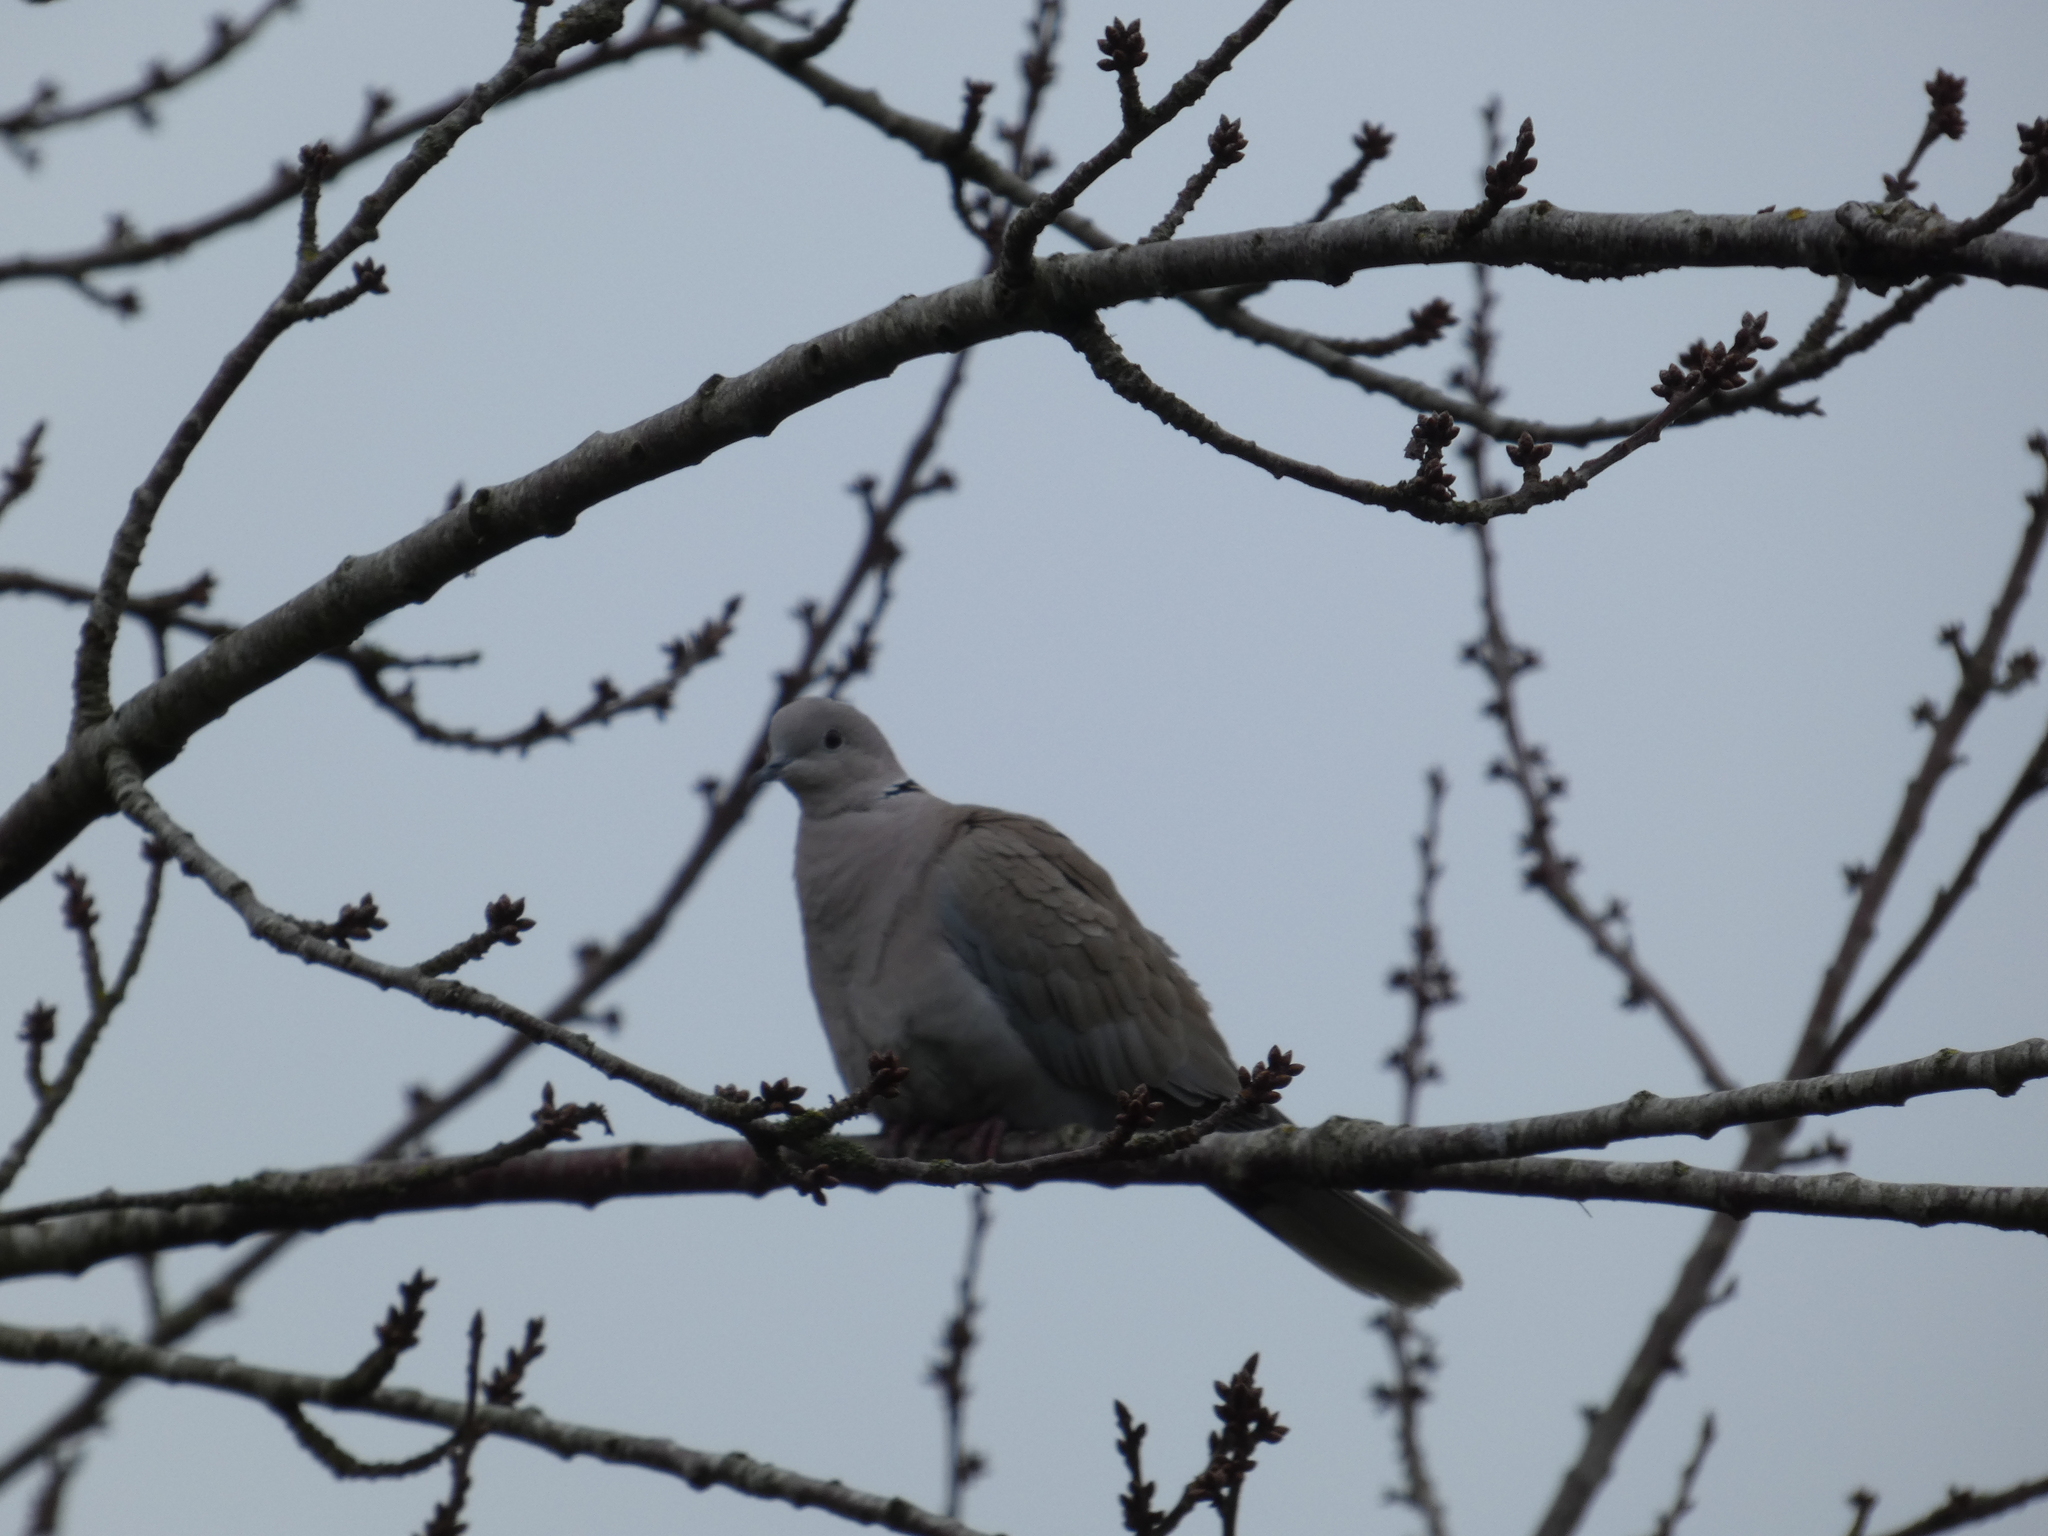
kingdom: Animalia
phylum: Chordata
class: Aves
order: Columbiformes
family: Columbidae
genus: Streptopelia
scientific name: Streptopelia decaocto
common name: Eurasian collared dove
